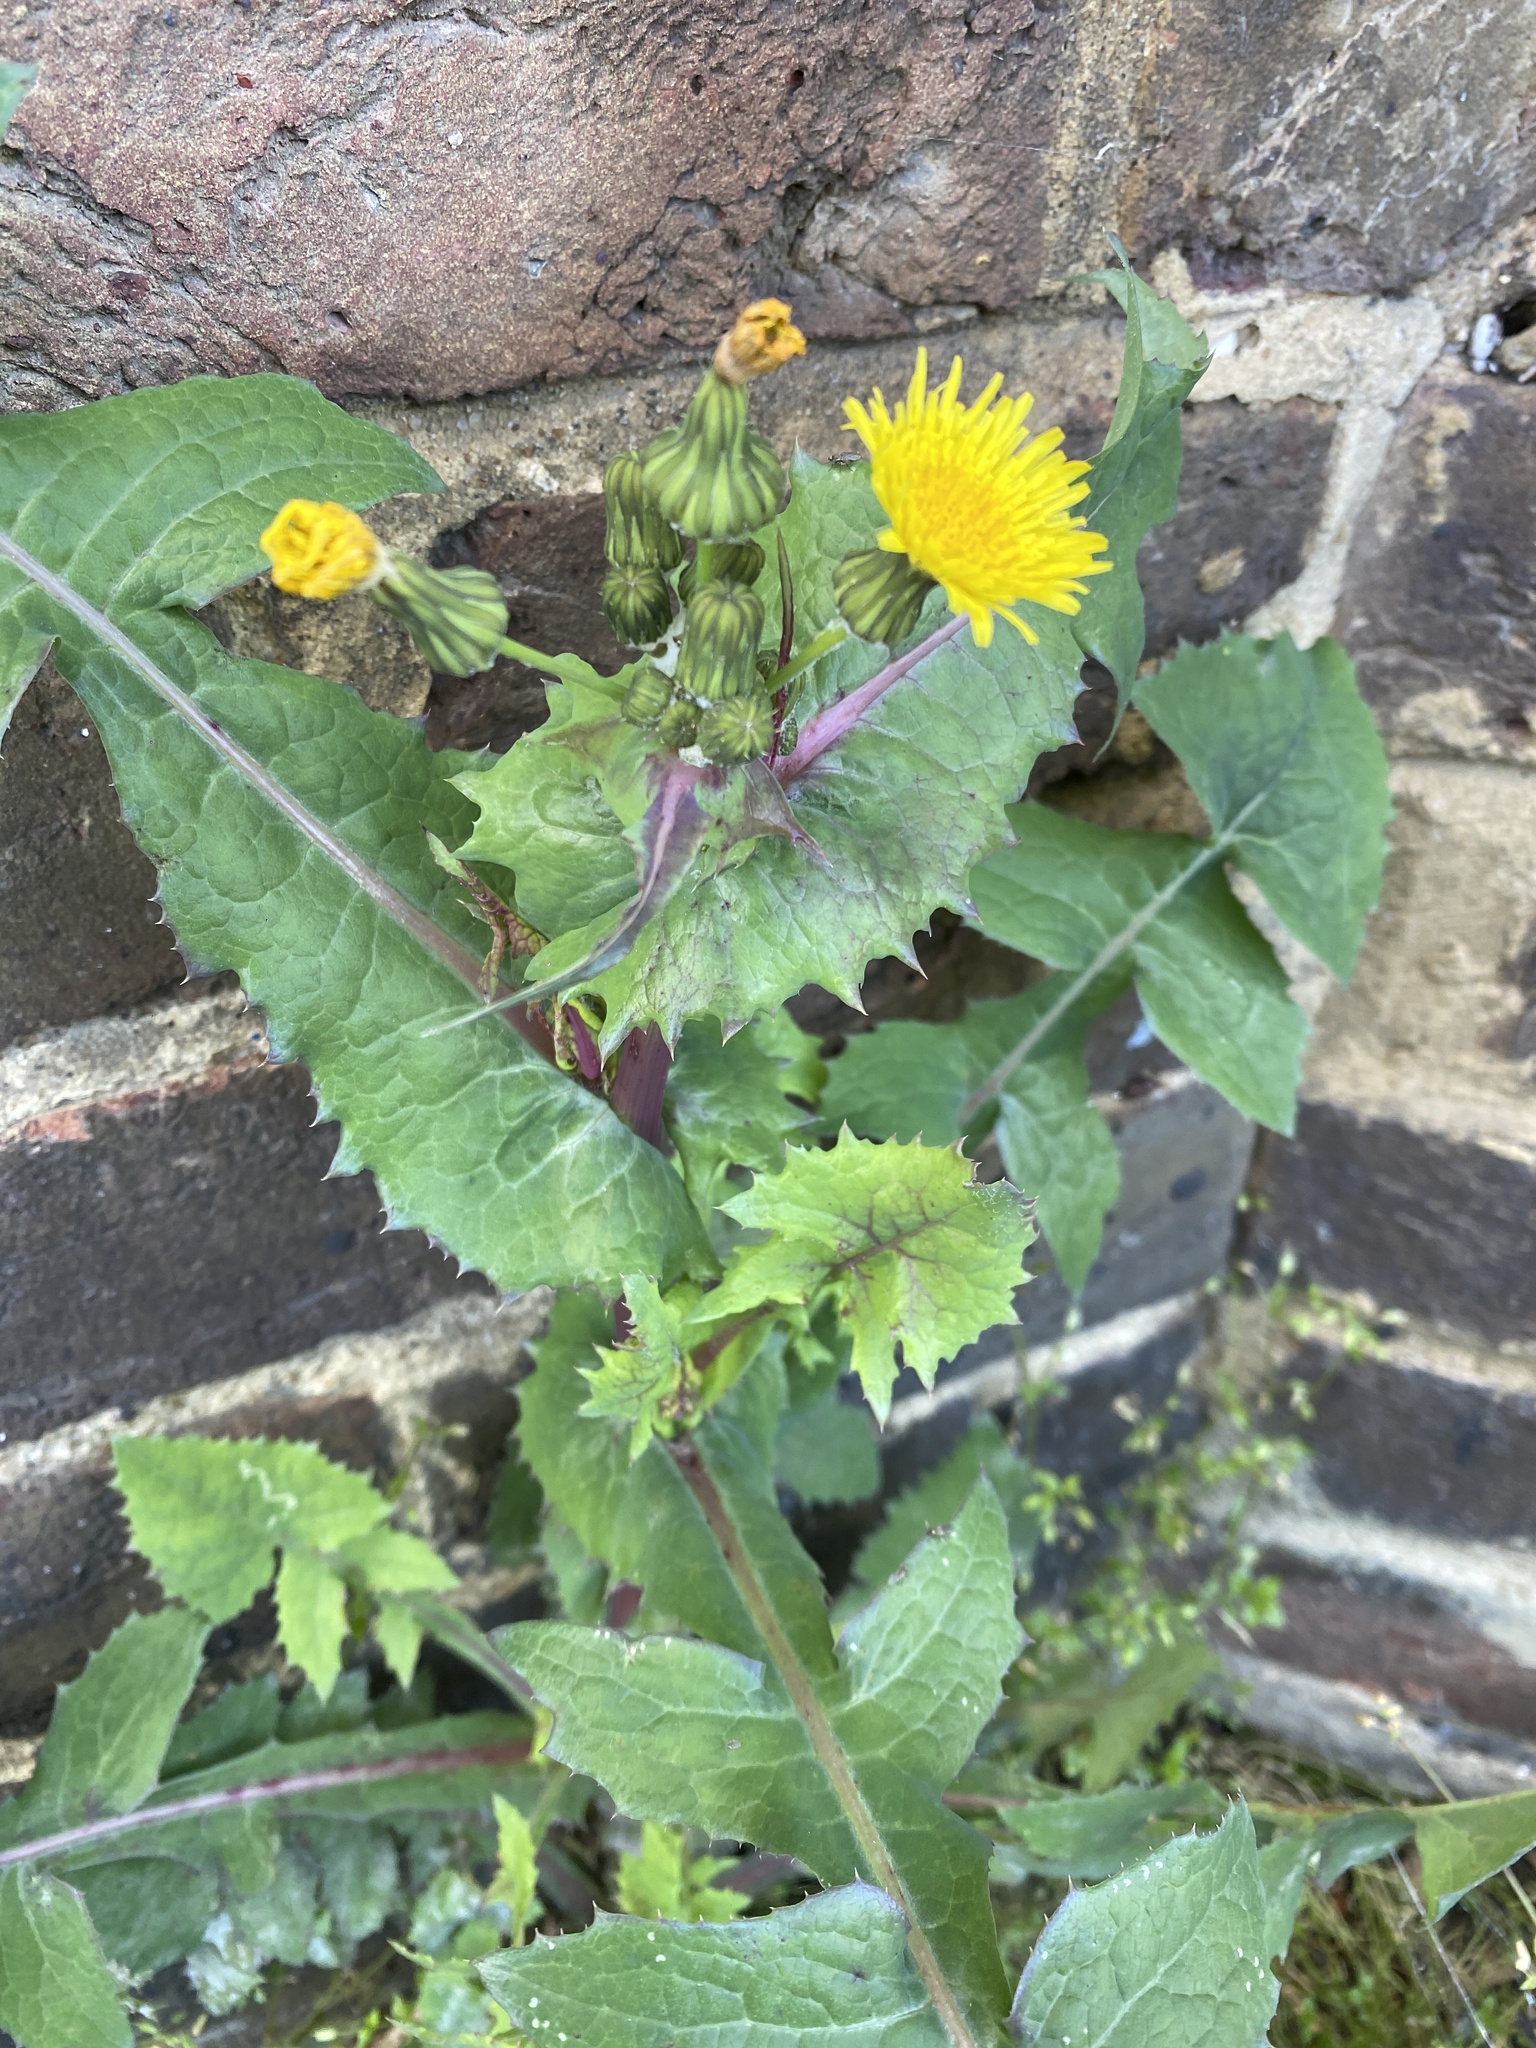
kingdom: Plantae
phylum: Tracheophyta
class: Magnoliopsida
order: Asterales
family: Asteraceae
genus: Sonchus
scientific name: Sonchus oleraceus
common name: Common sowthistle
